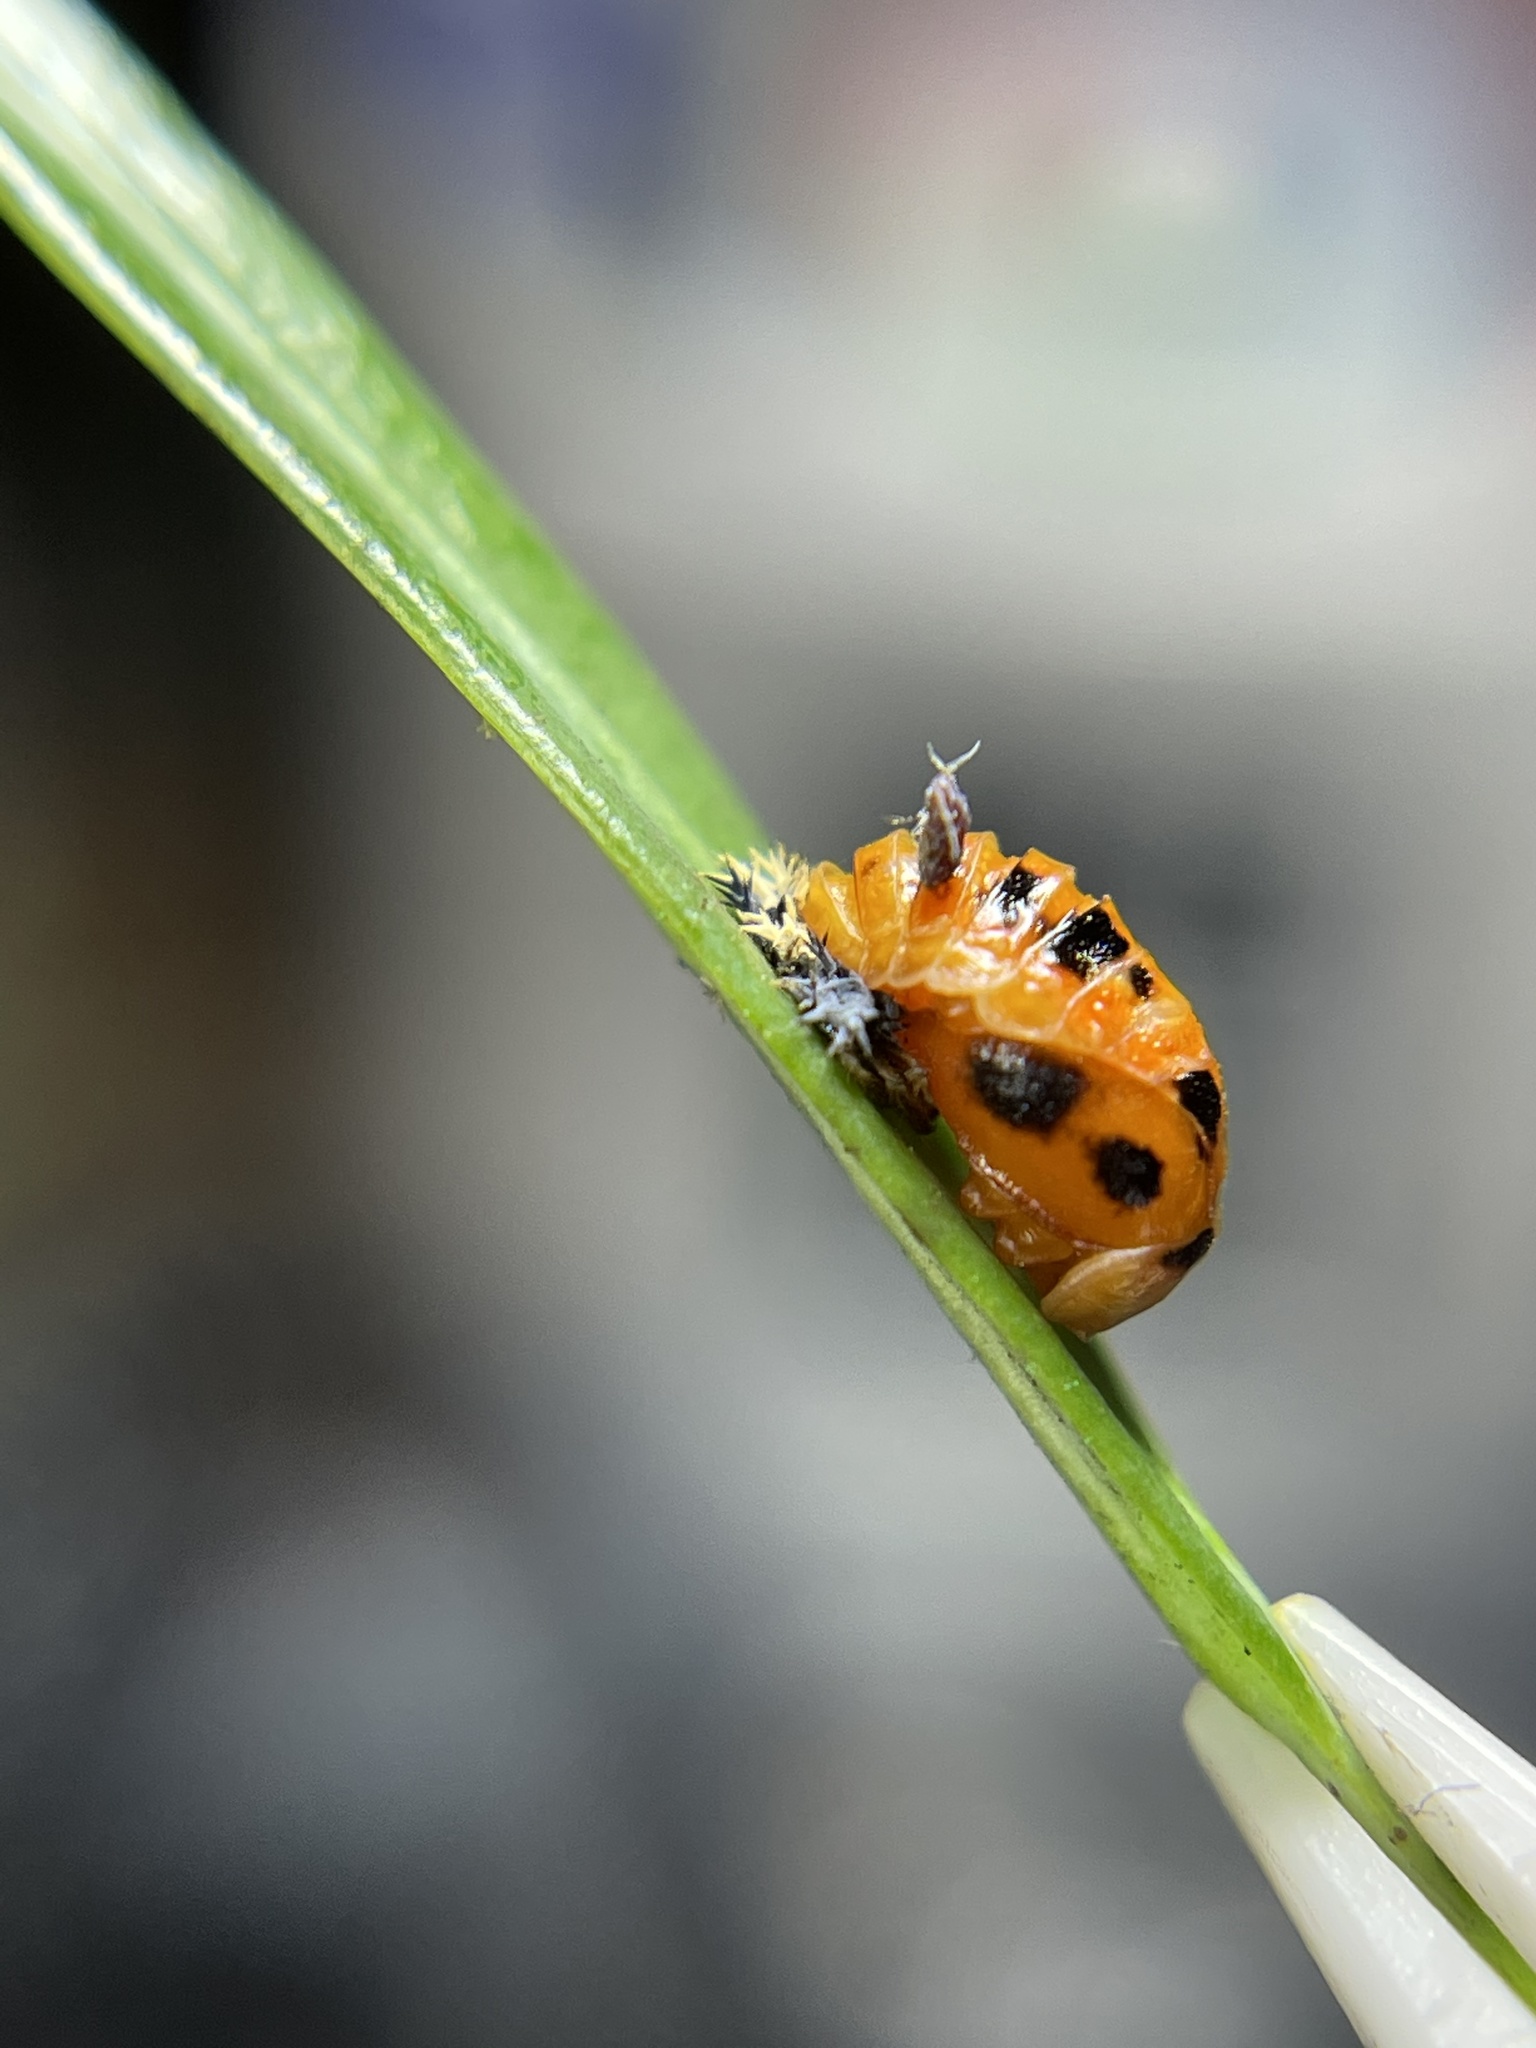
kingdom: Animalia
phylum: Arthropoda
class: Insecta
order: Coleoptera
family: Coccinellidae
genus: Harmonia
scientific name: Harmonia axyridis
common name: Harlequin ladybird
